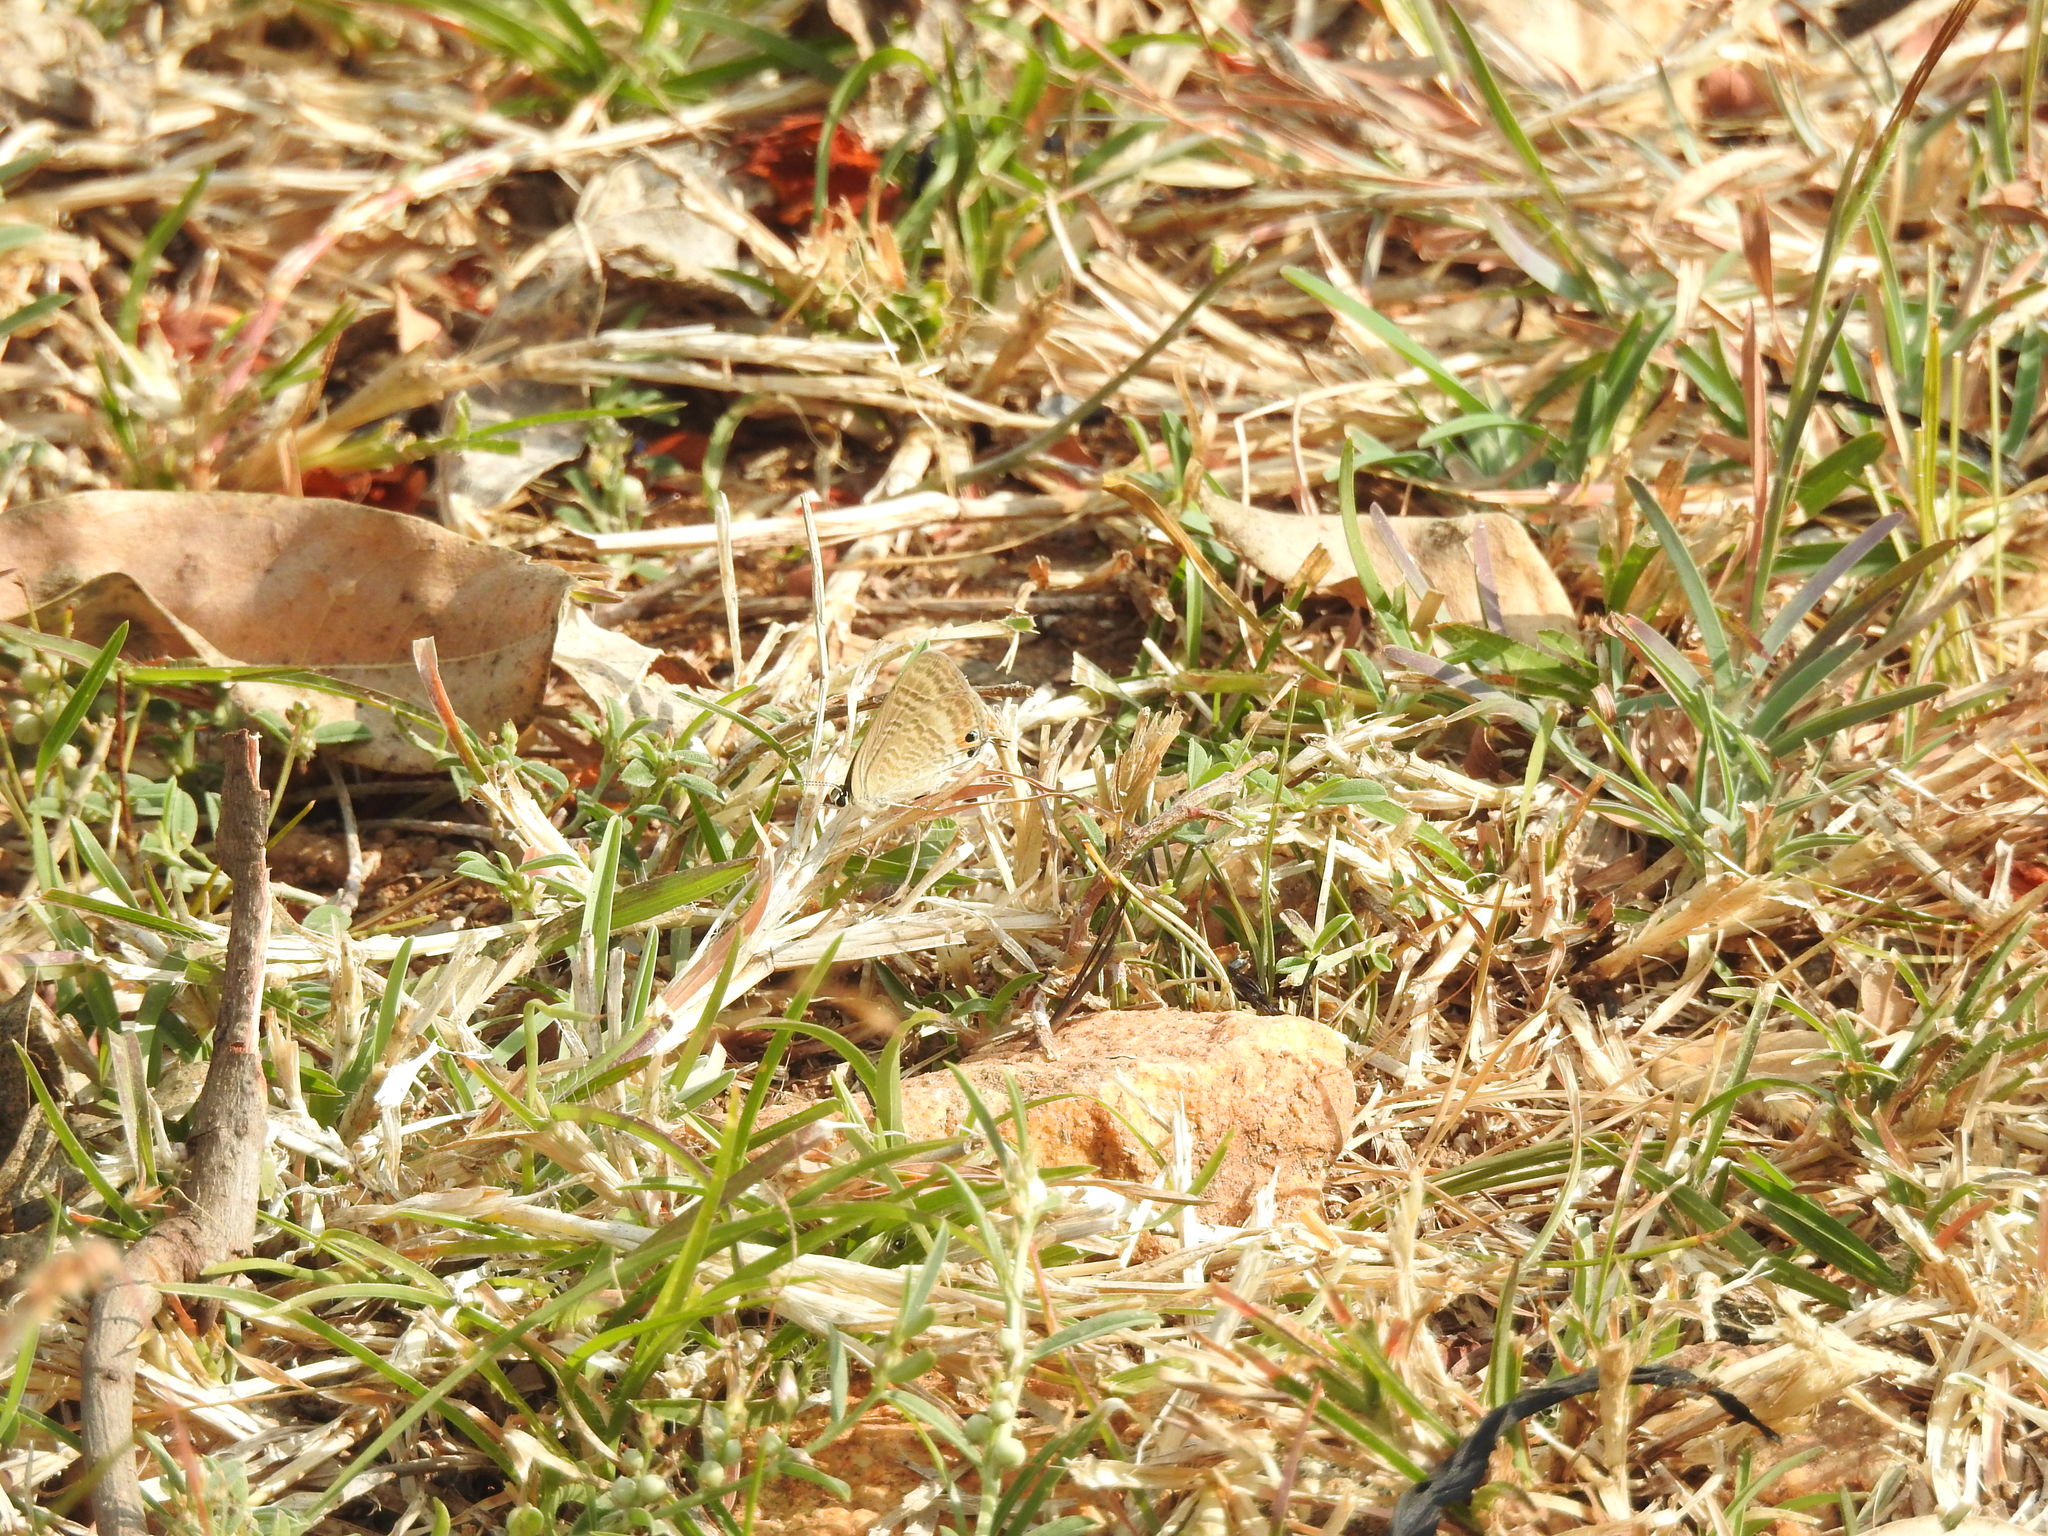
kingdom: Animalia
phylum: Arthropoda
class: Insecta
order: Lepidoptera
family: Lycaenidae
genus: Lampides
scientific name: Lampides boeticus
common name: Long-tailed blue
